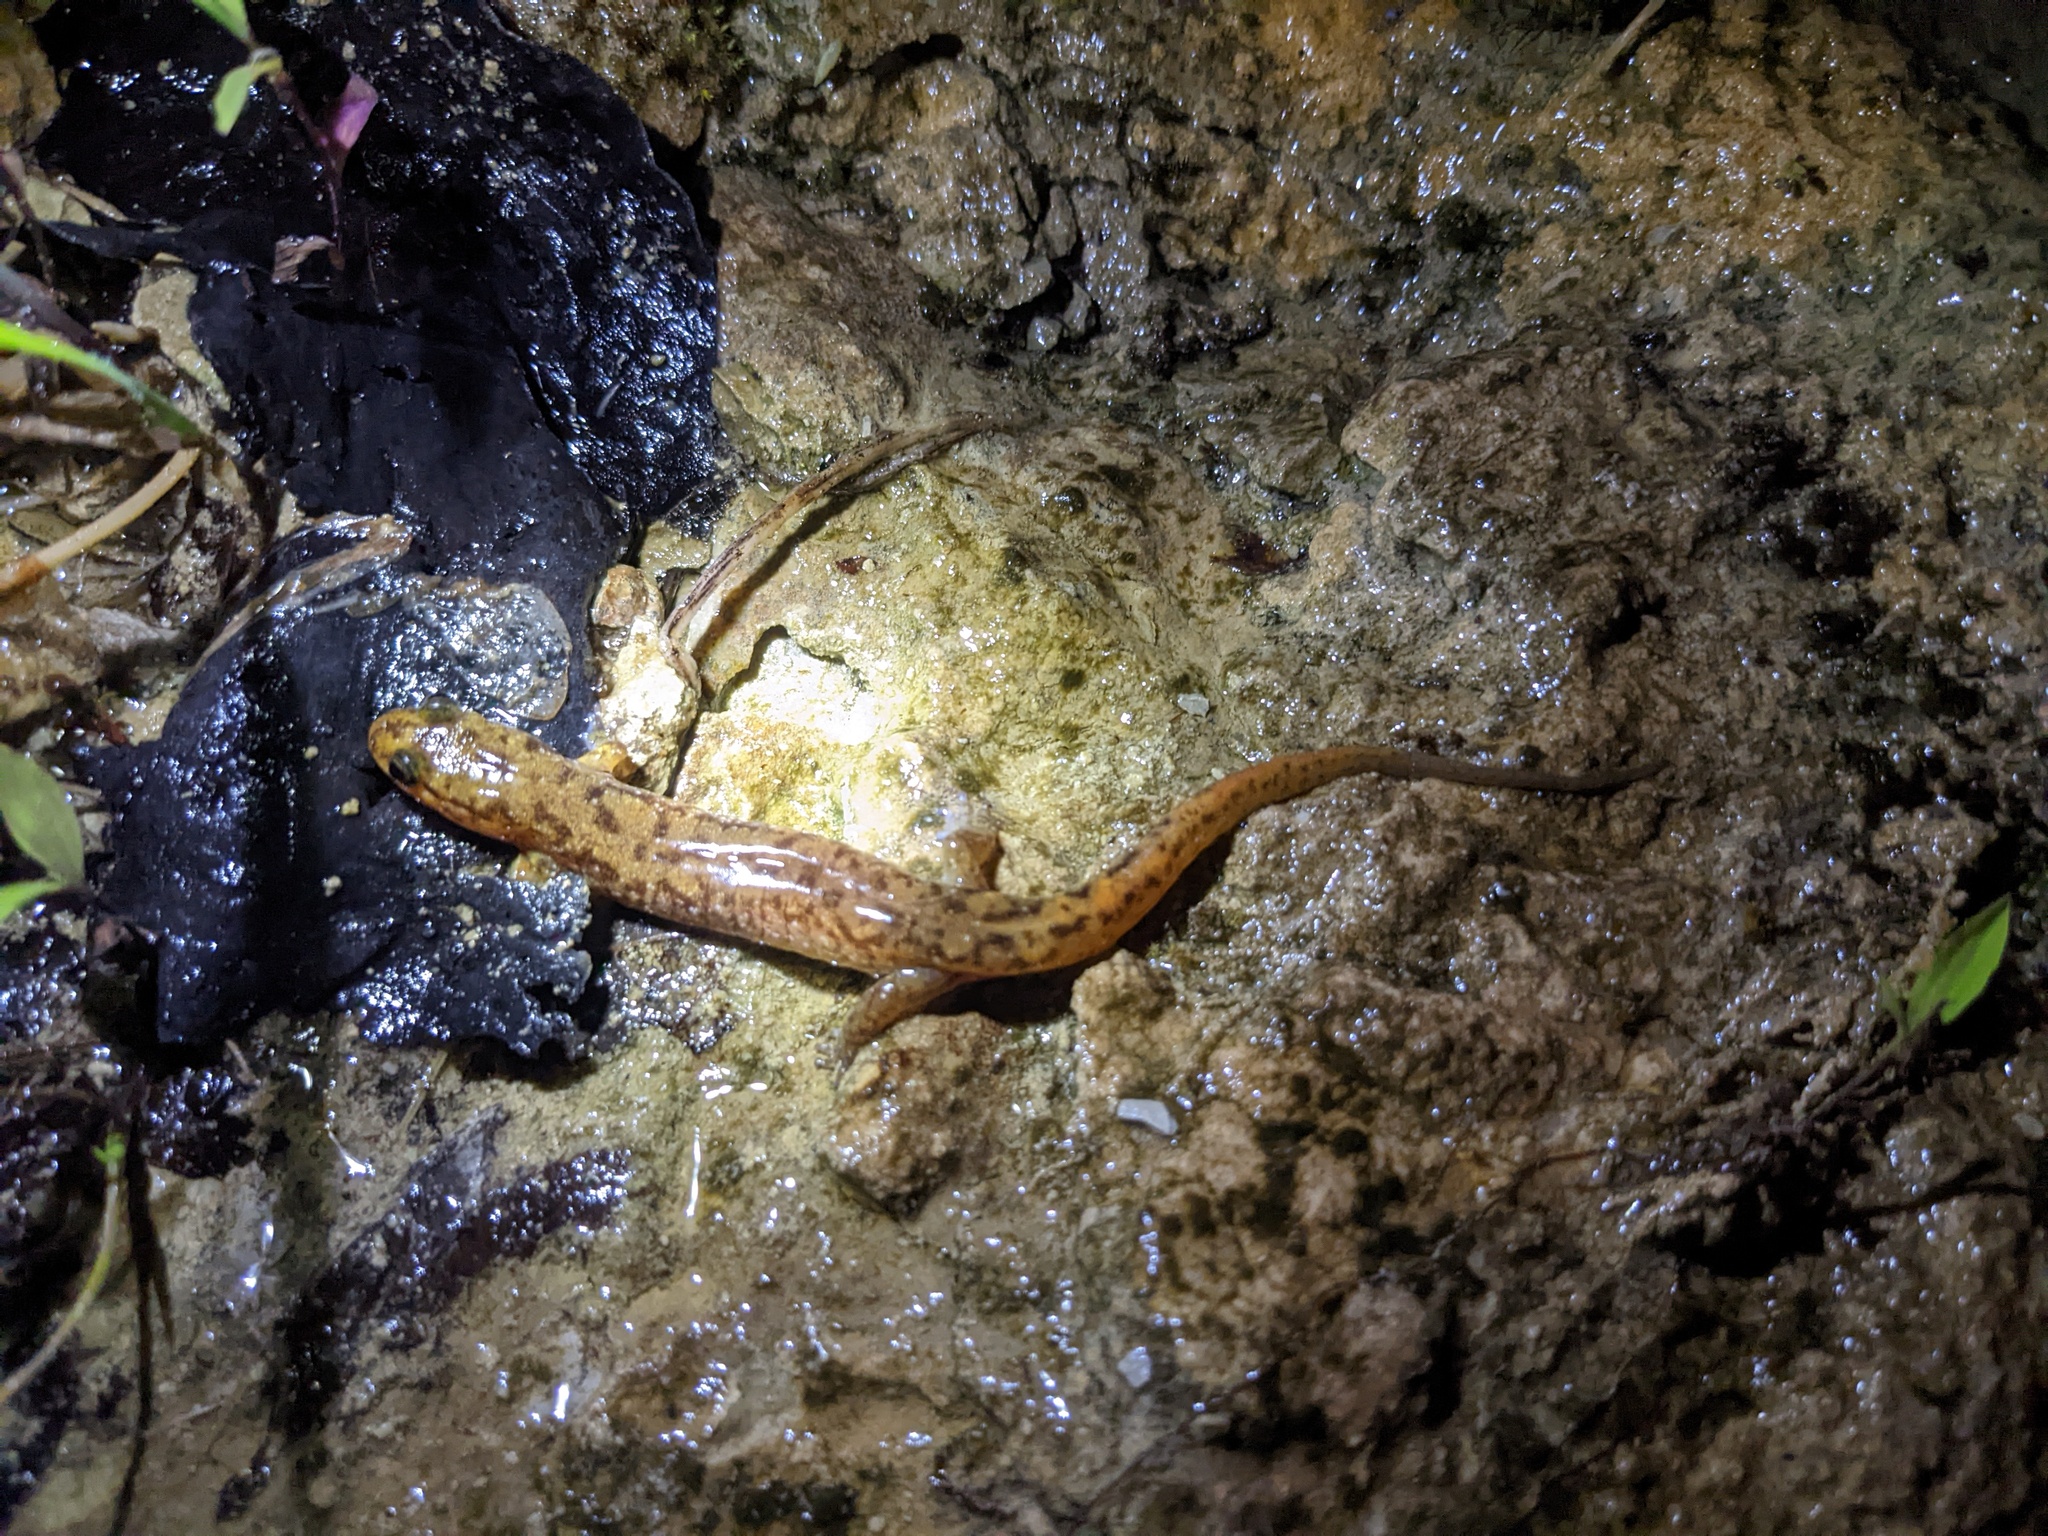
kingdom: Animalia
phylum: Chordata
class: Amphibia
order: Caudata
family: Plethodontidae
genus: Desmognathus
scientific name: Desmognathus monticola
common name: Seal salamander
